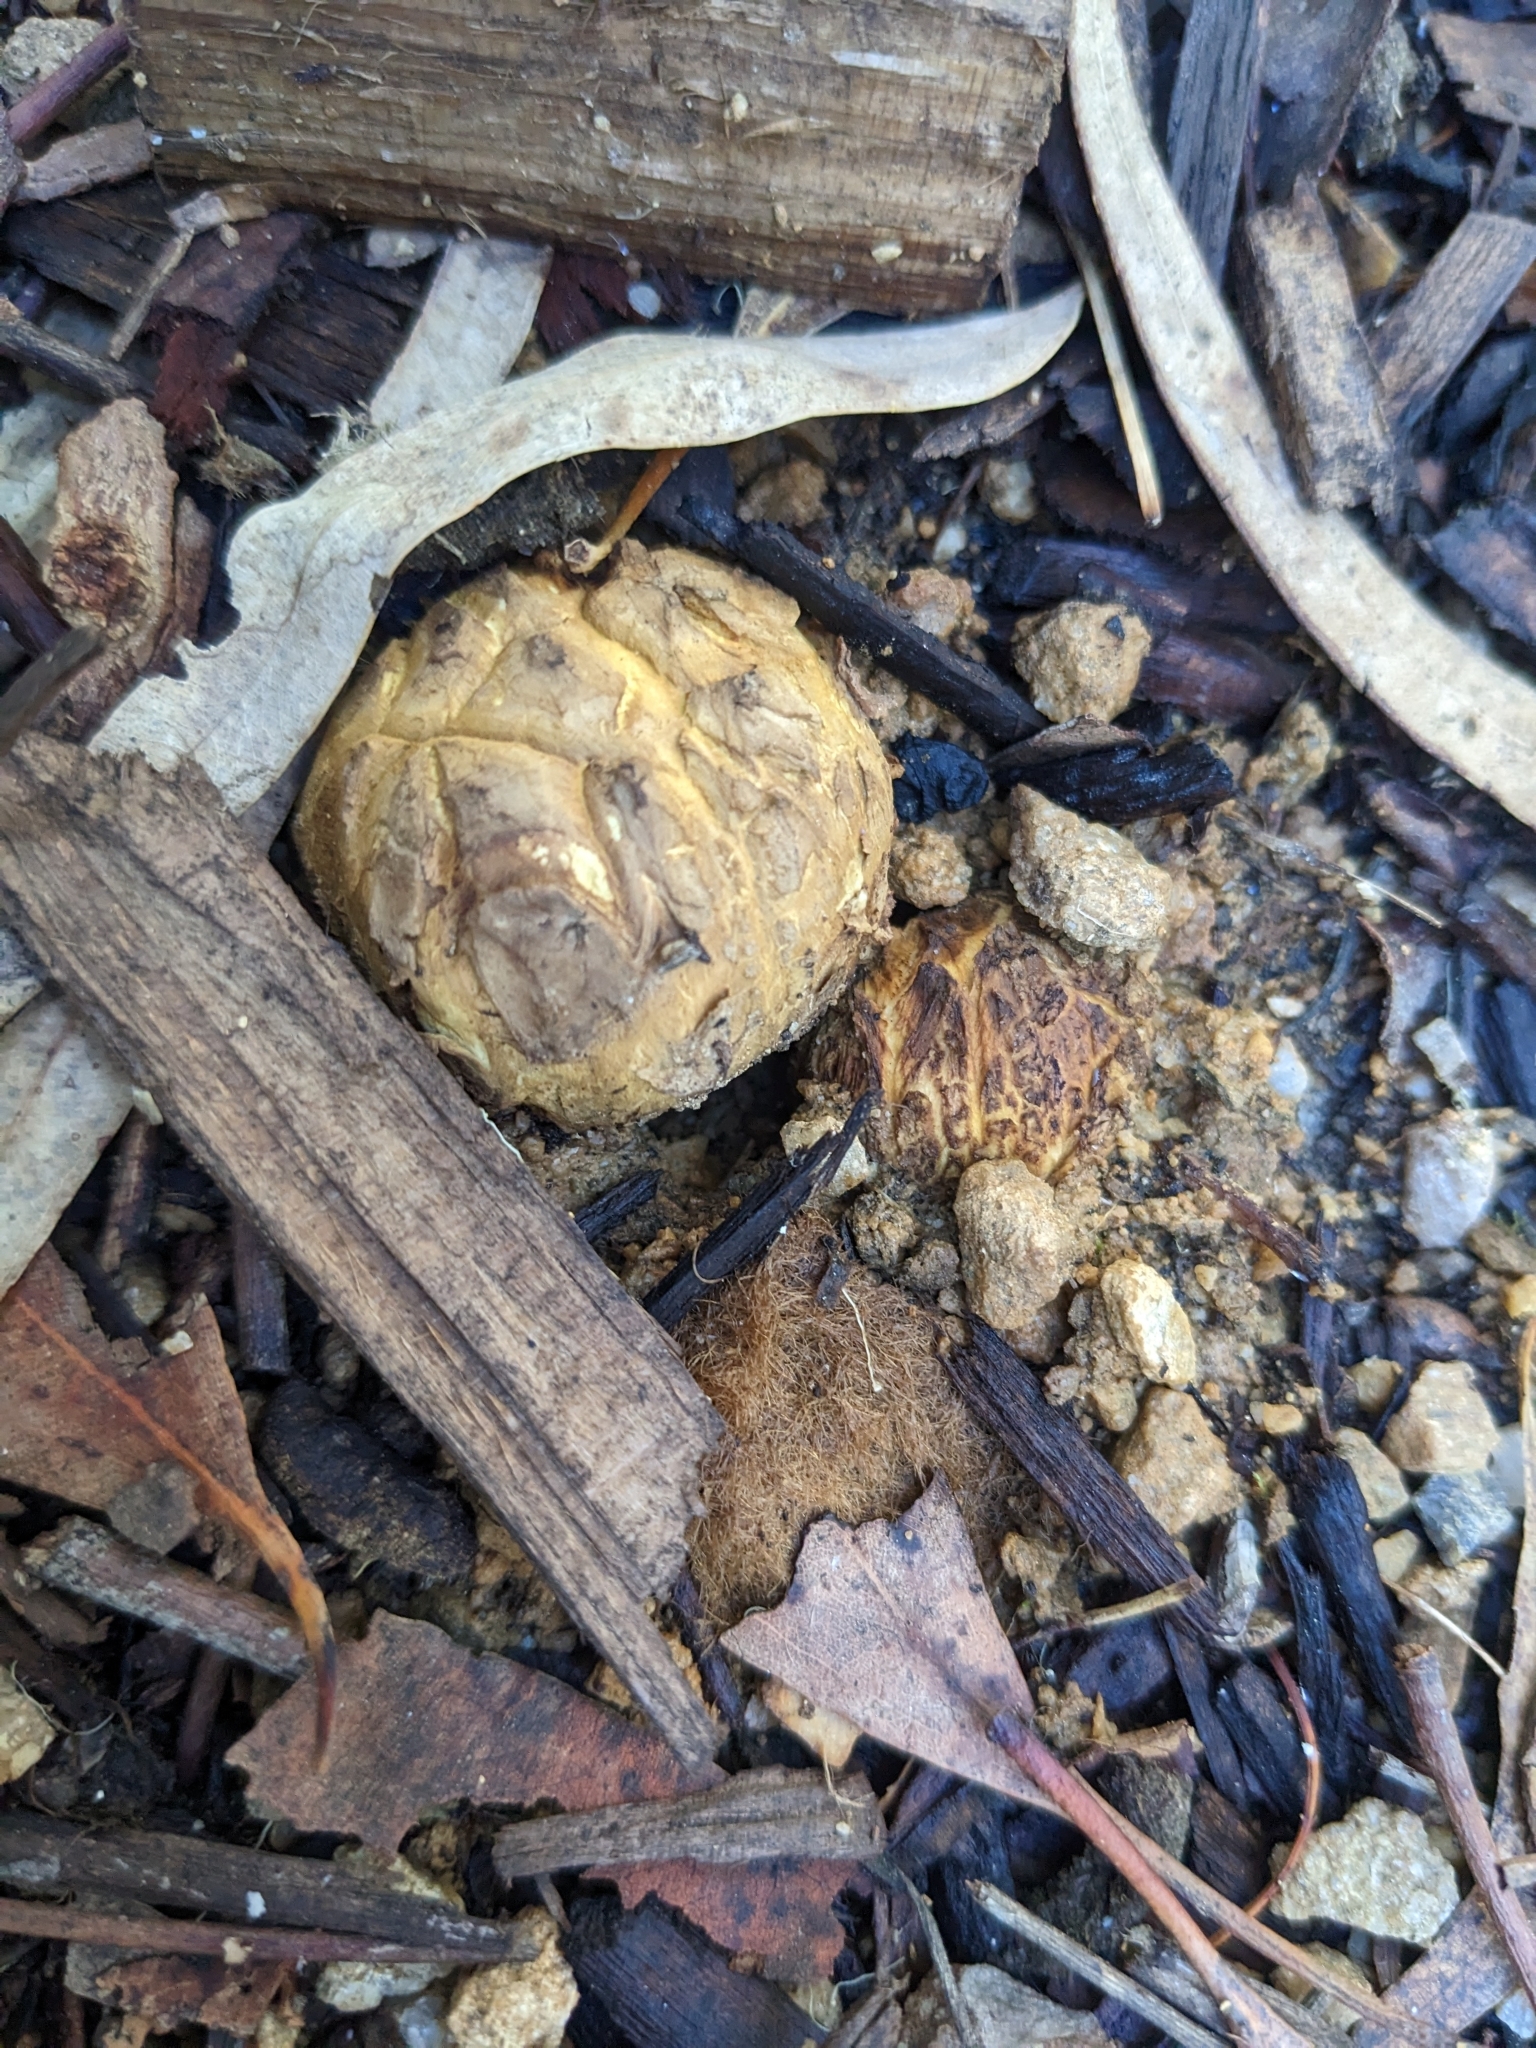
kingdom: Fungi
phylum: Basidiomycota
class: Agaricomycetes
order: Boletales
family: Sclerodermataceae
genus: Scleroderma
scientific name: Scleroderma cepa
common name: Onion earthball
